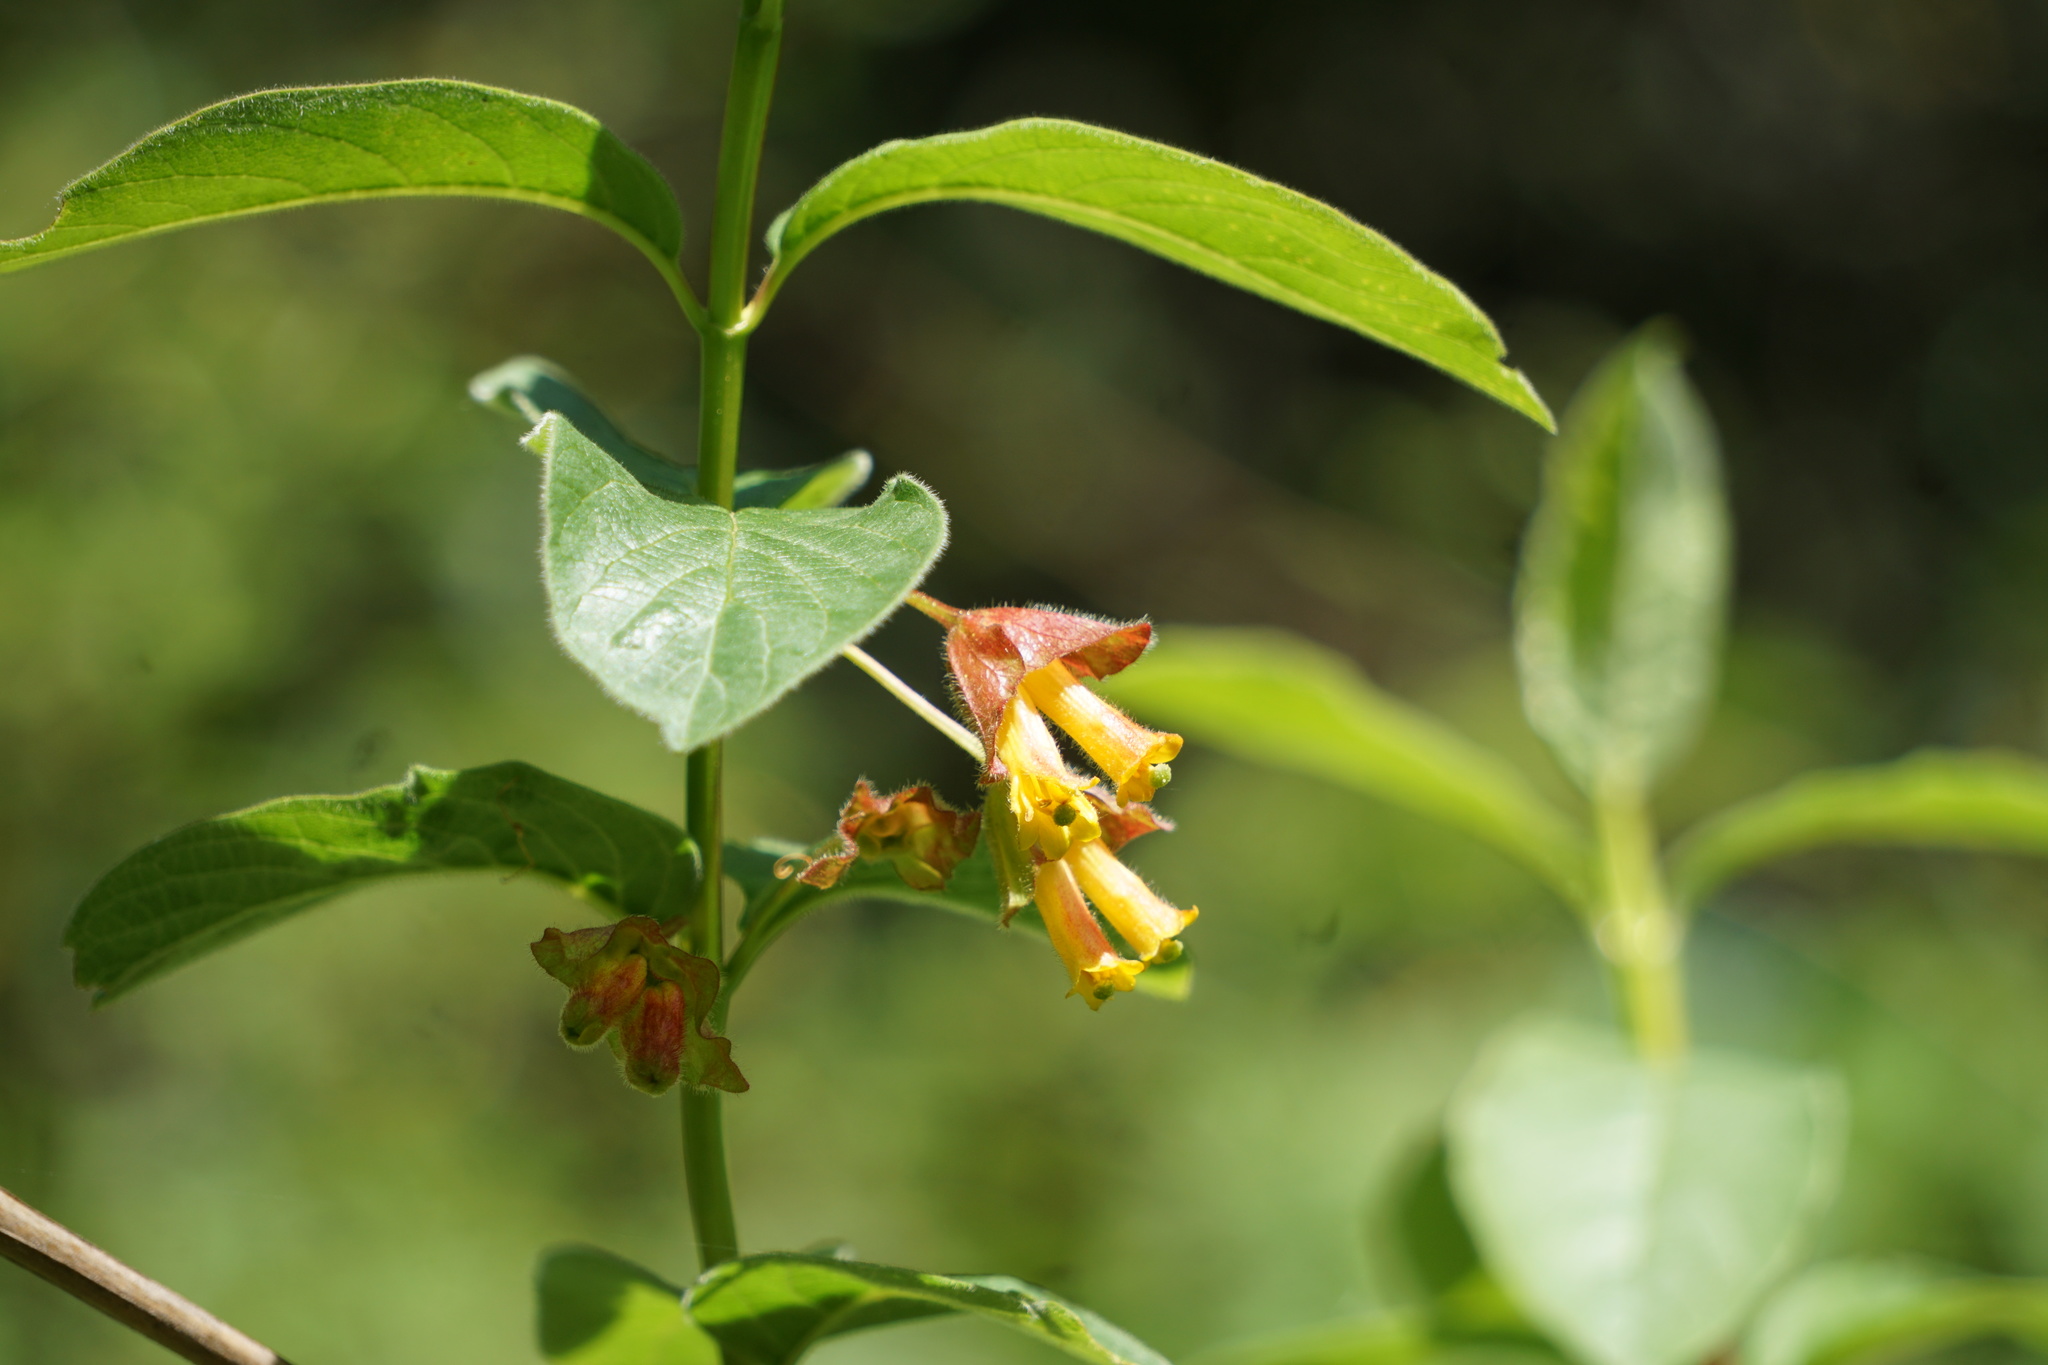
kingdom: Plantae
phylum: Tracheophyta
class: Magnoliopsida
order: Dipsacales
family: Caprifoliaceae
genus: Lonicera
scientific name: Lonicera involucrata
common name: Californian honeysuckle
